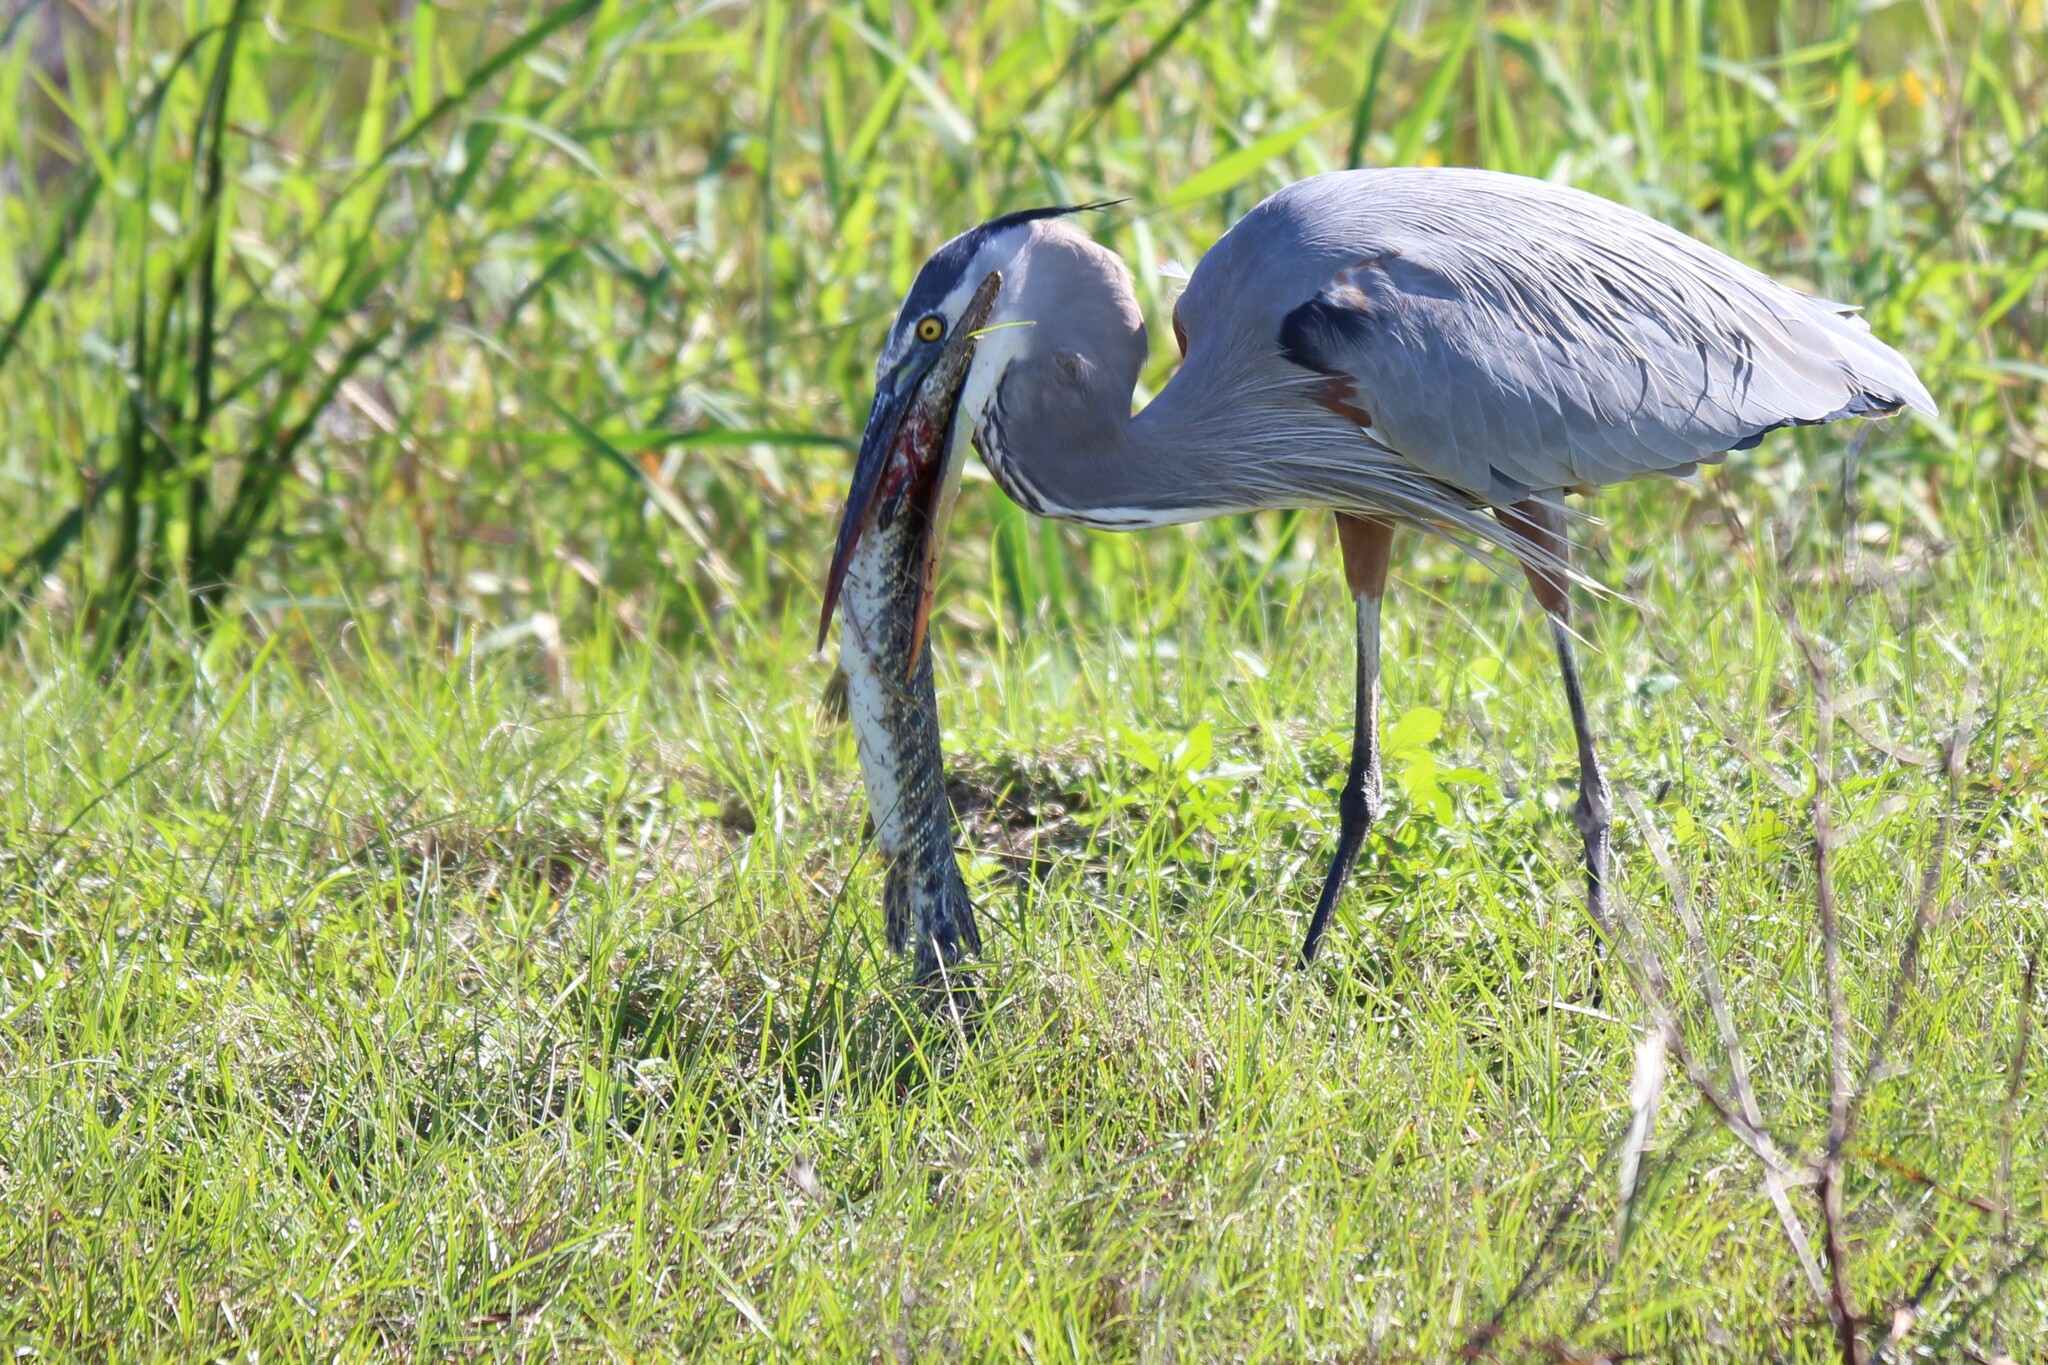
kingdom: Animalia
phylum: Chordata
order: Lepisosteiformes
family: Lepisosteidae
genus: Lepisosteus
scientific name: Lepisosteus platyrhincus
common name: Florida gar
